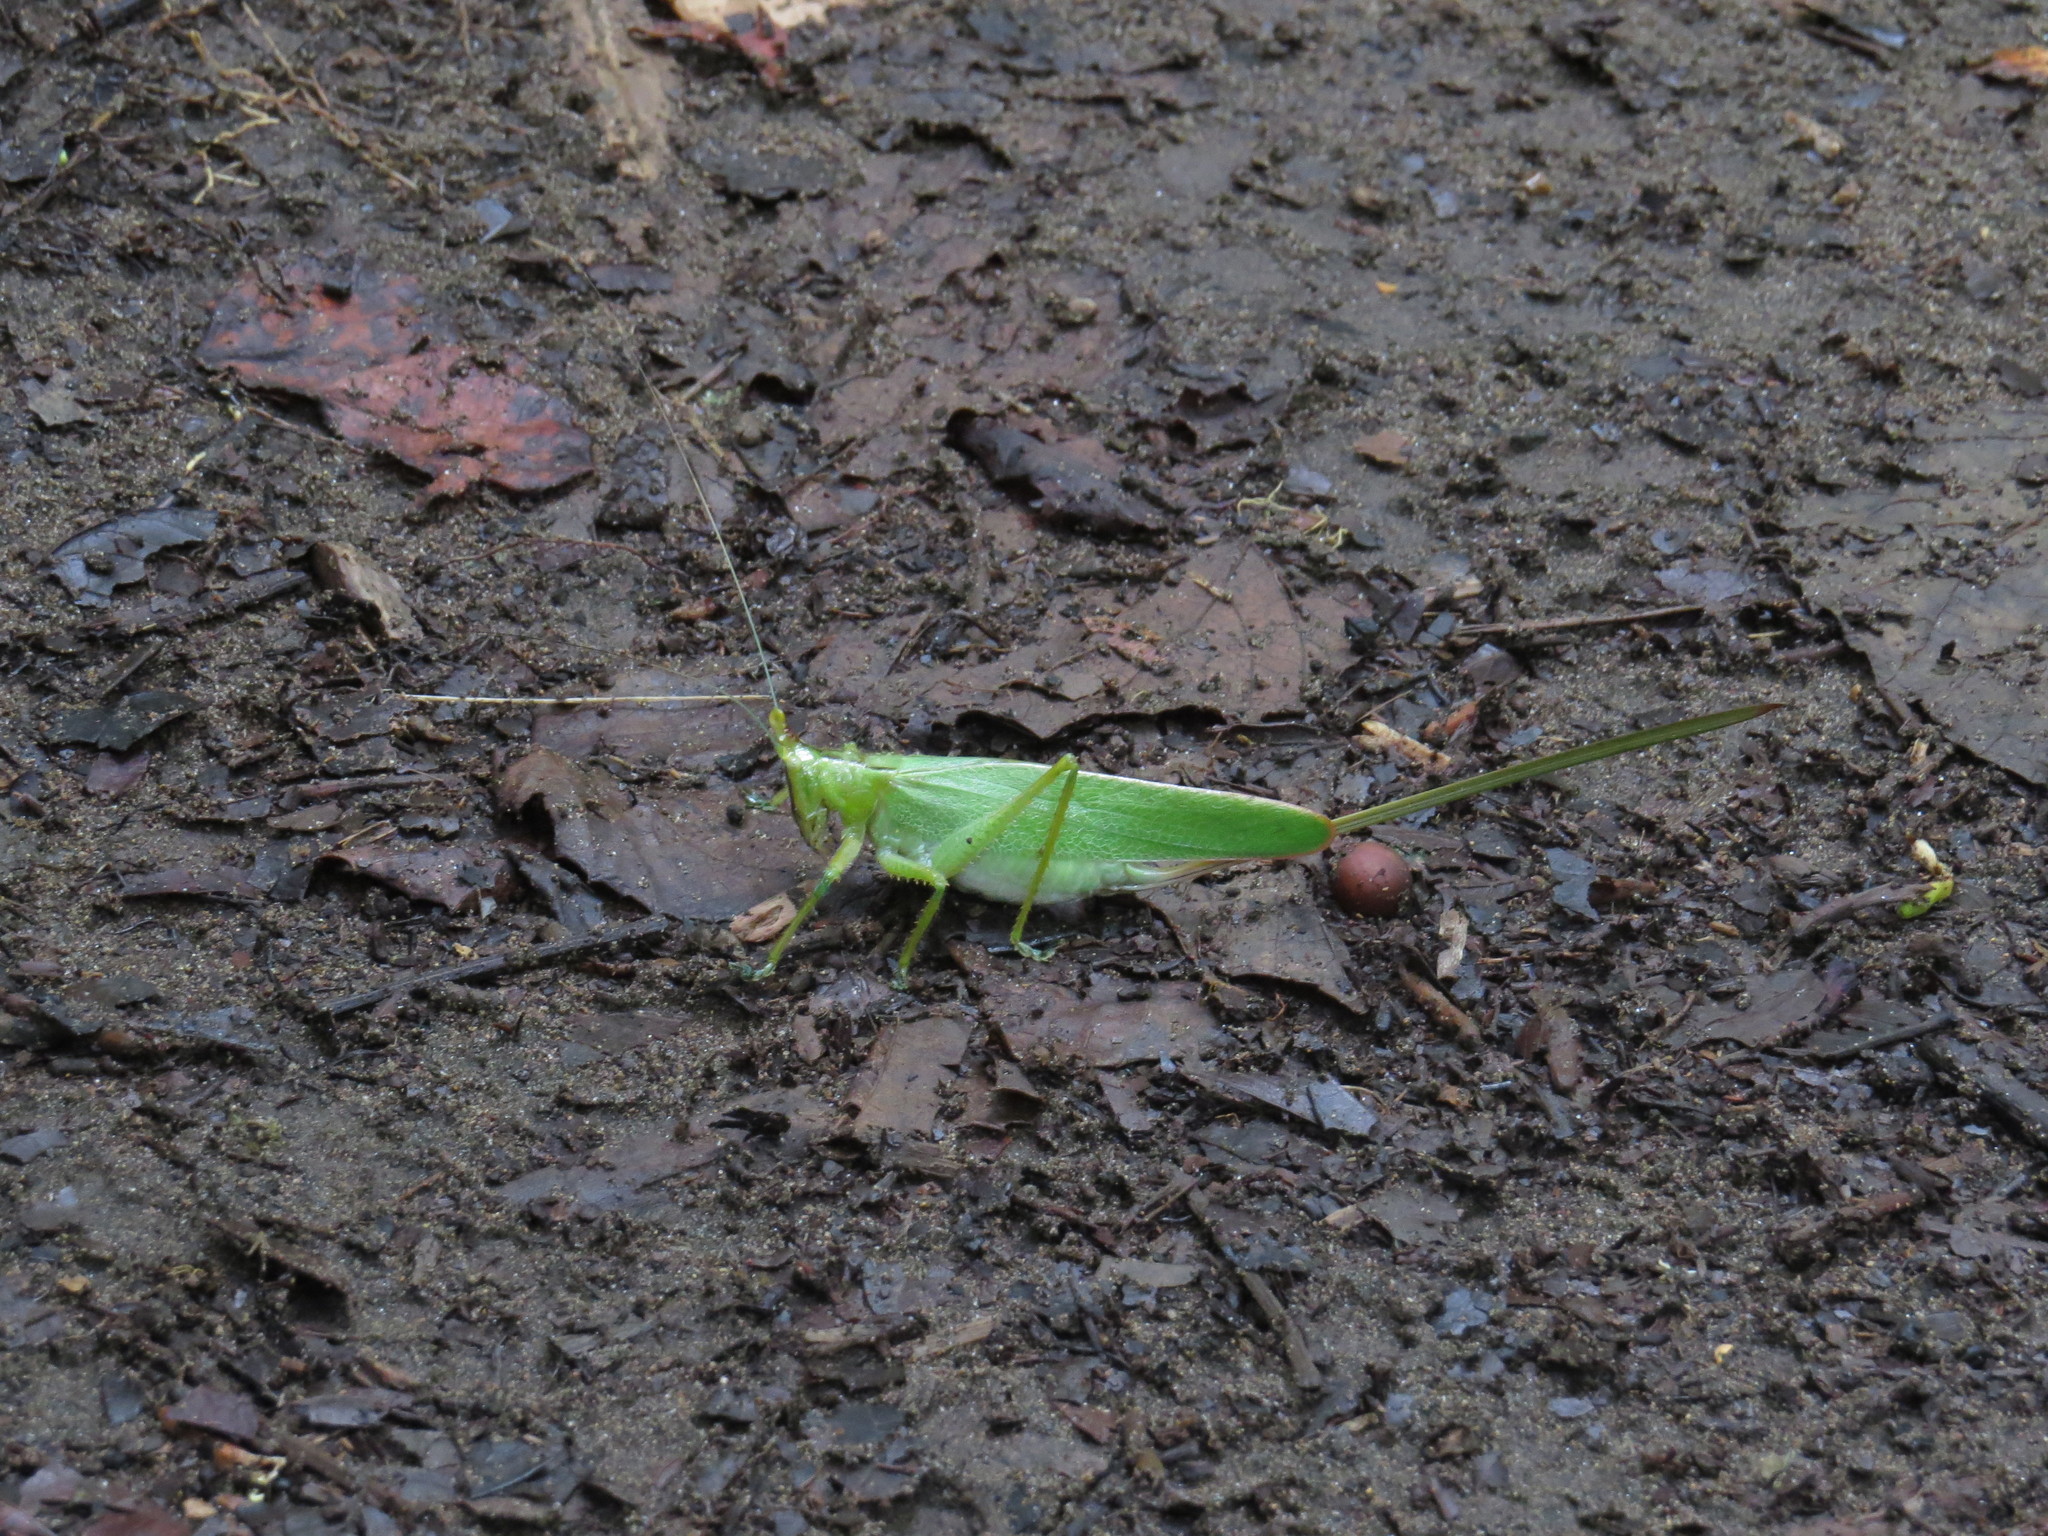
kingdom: Animalia
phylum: Arthropoda
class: Insecta
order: Orthoptera
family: Tettigoniidae
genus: Copiphora
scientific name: Copiphora hastata
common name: Brown-faced spearbearer
